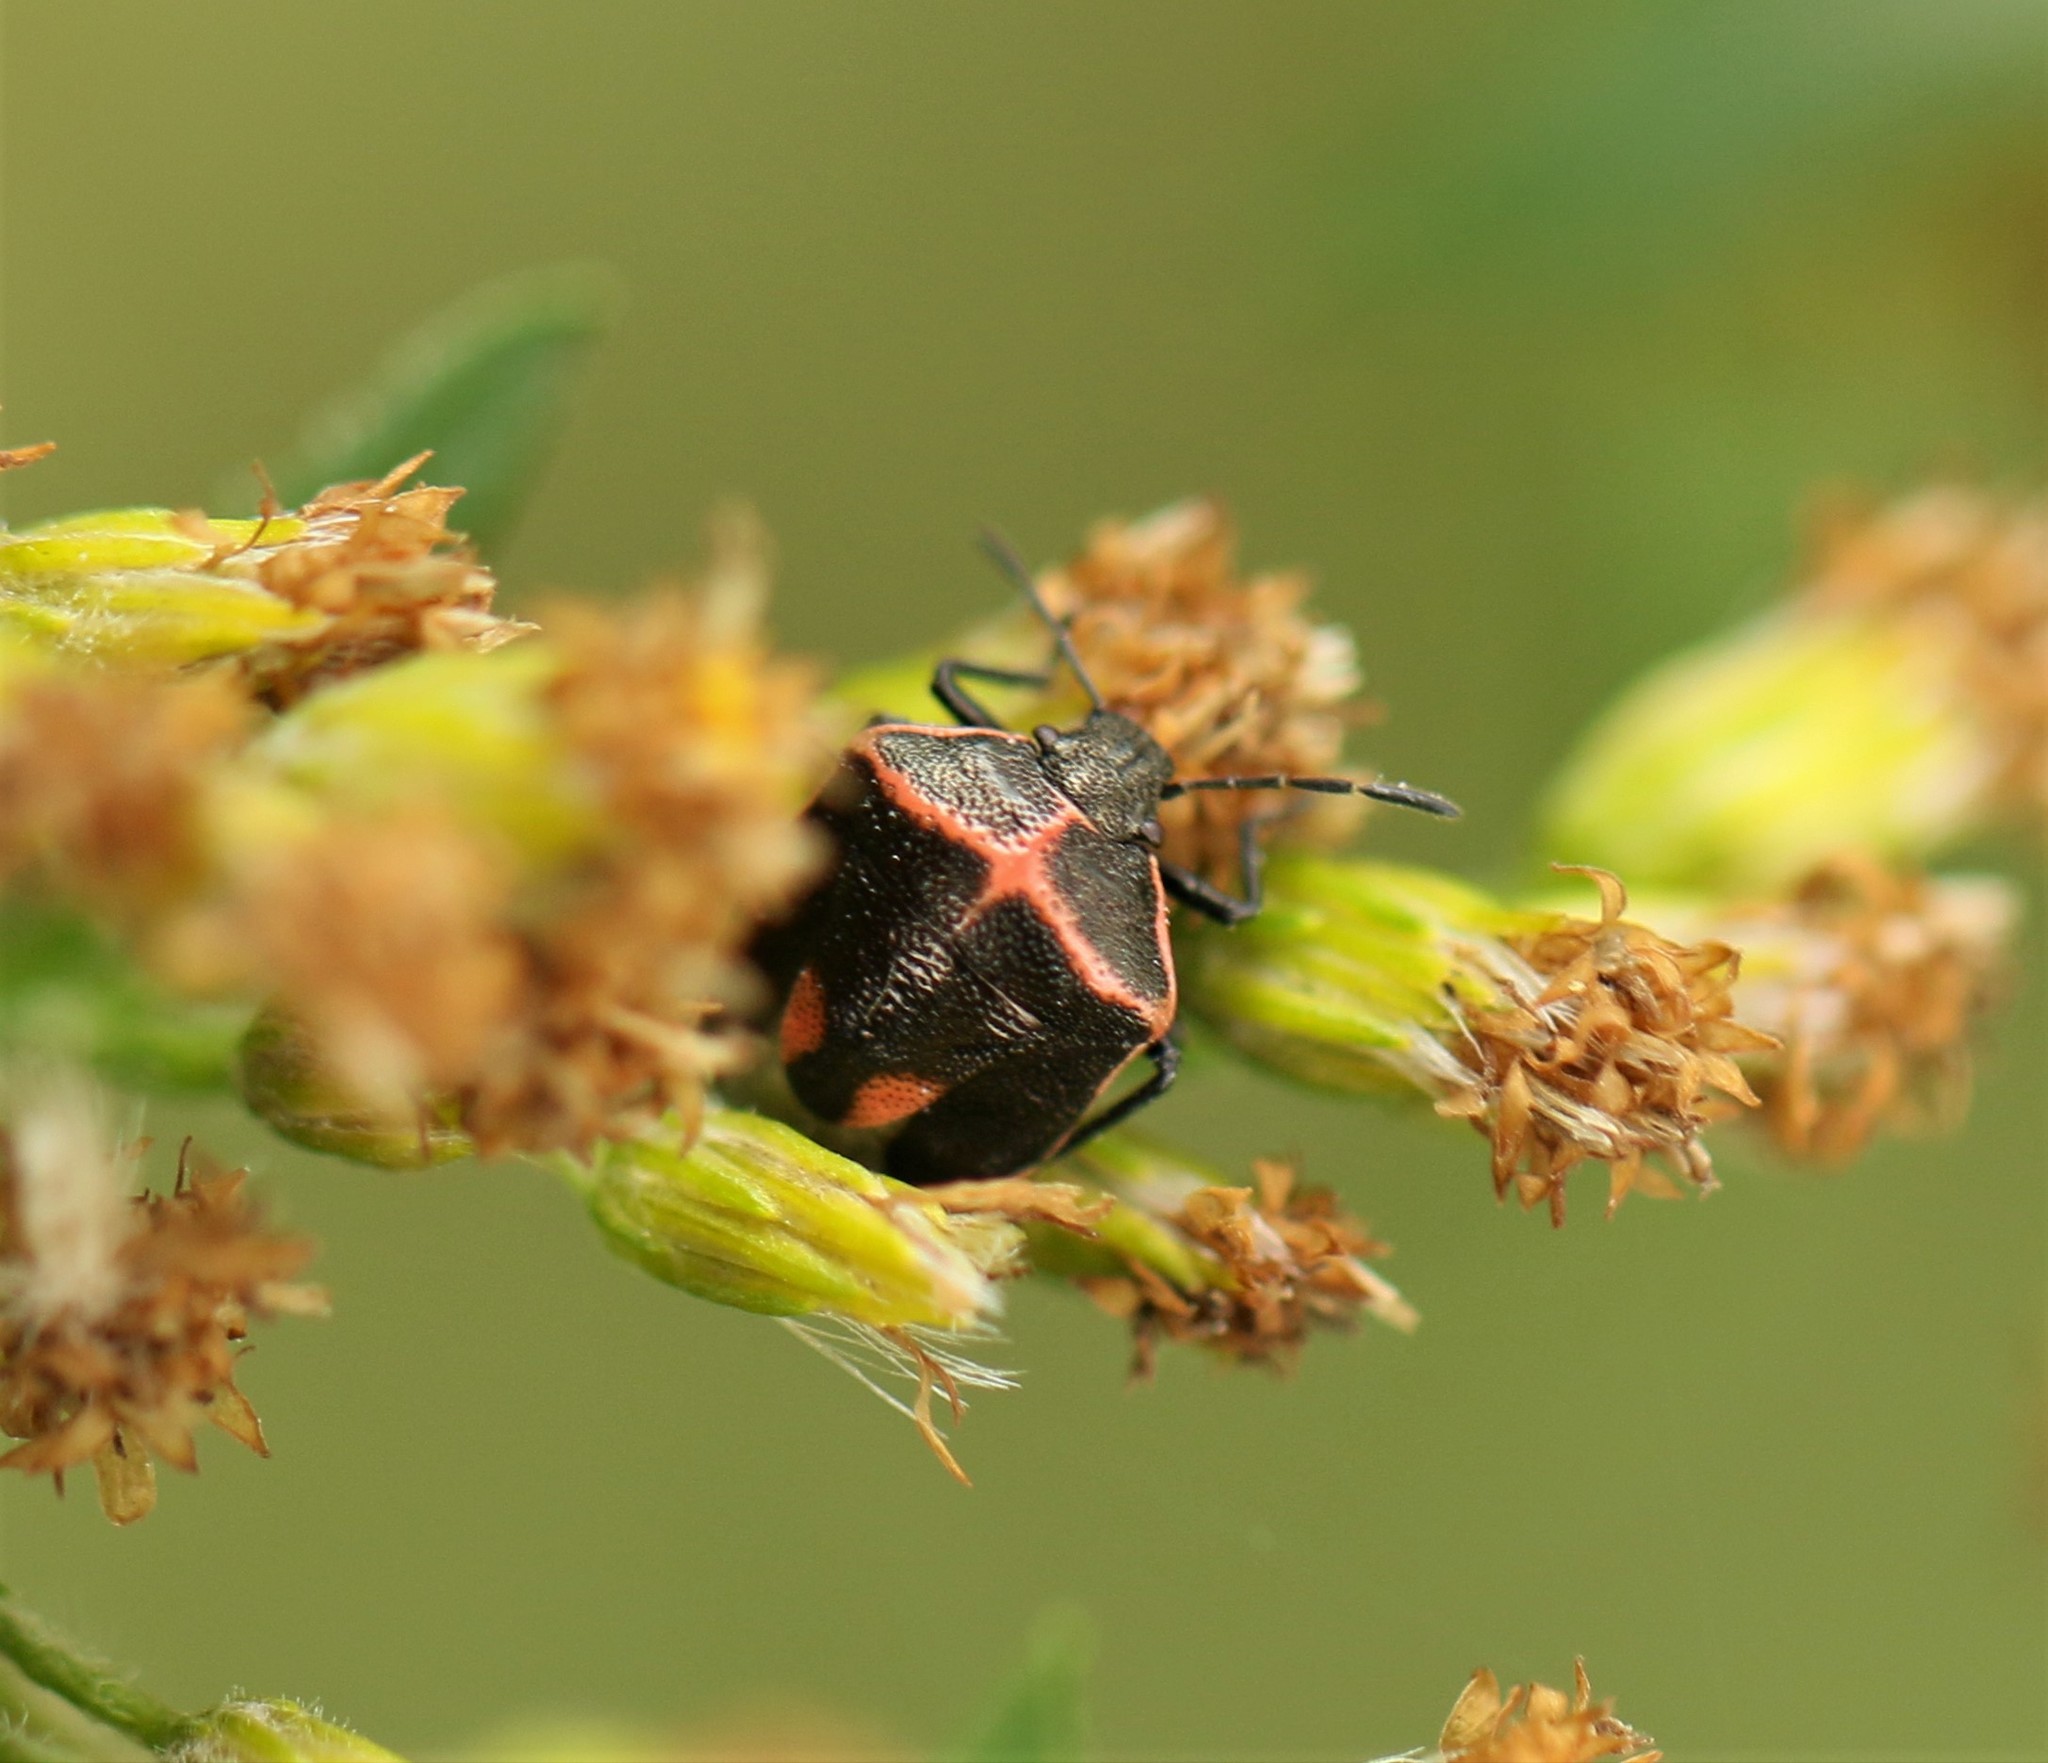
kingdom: Animalia
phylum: Arthropoda
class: Insecta
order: Hemiptera
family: Pentatomidae
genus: Cosmopepla
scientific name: Cosmopepla lintneriana
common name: Twice-stabbed stink bug
